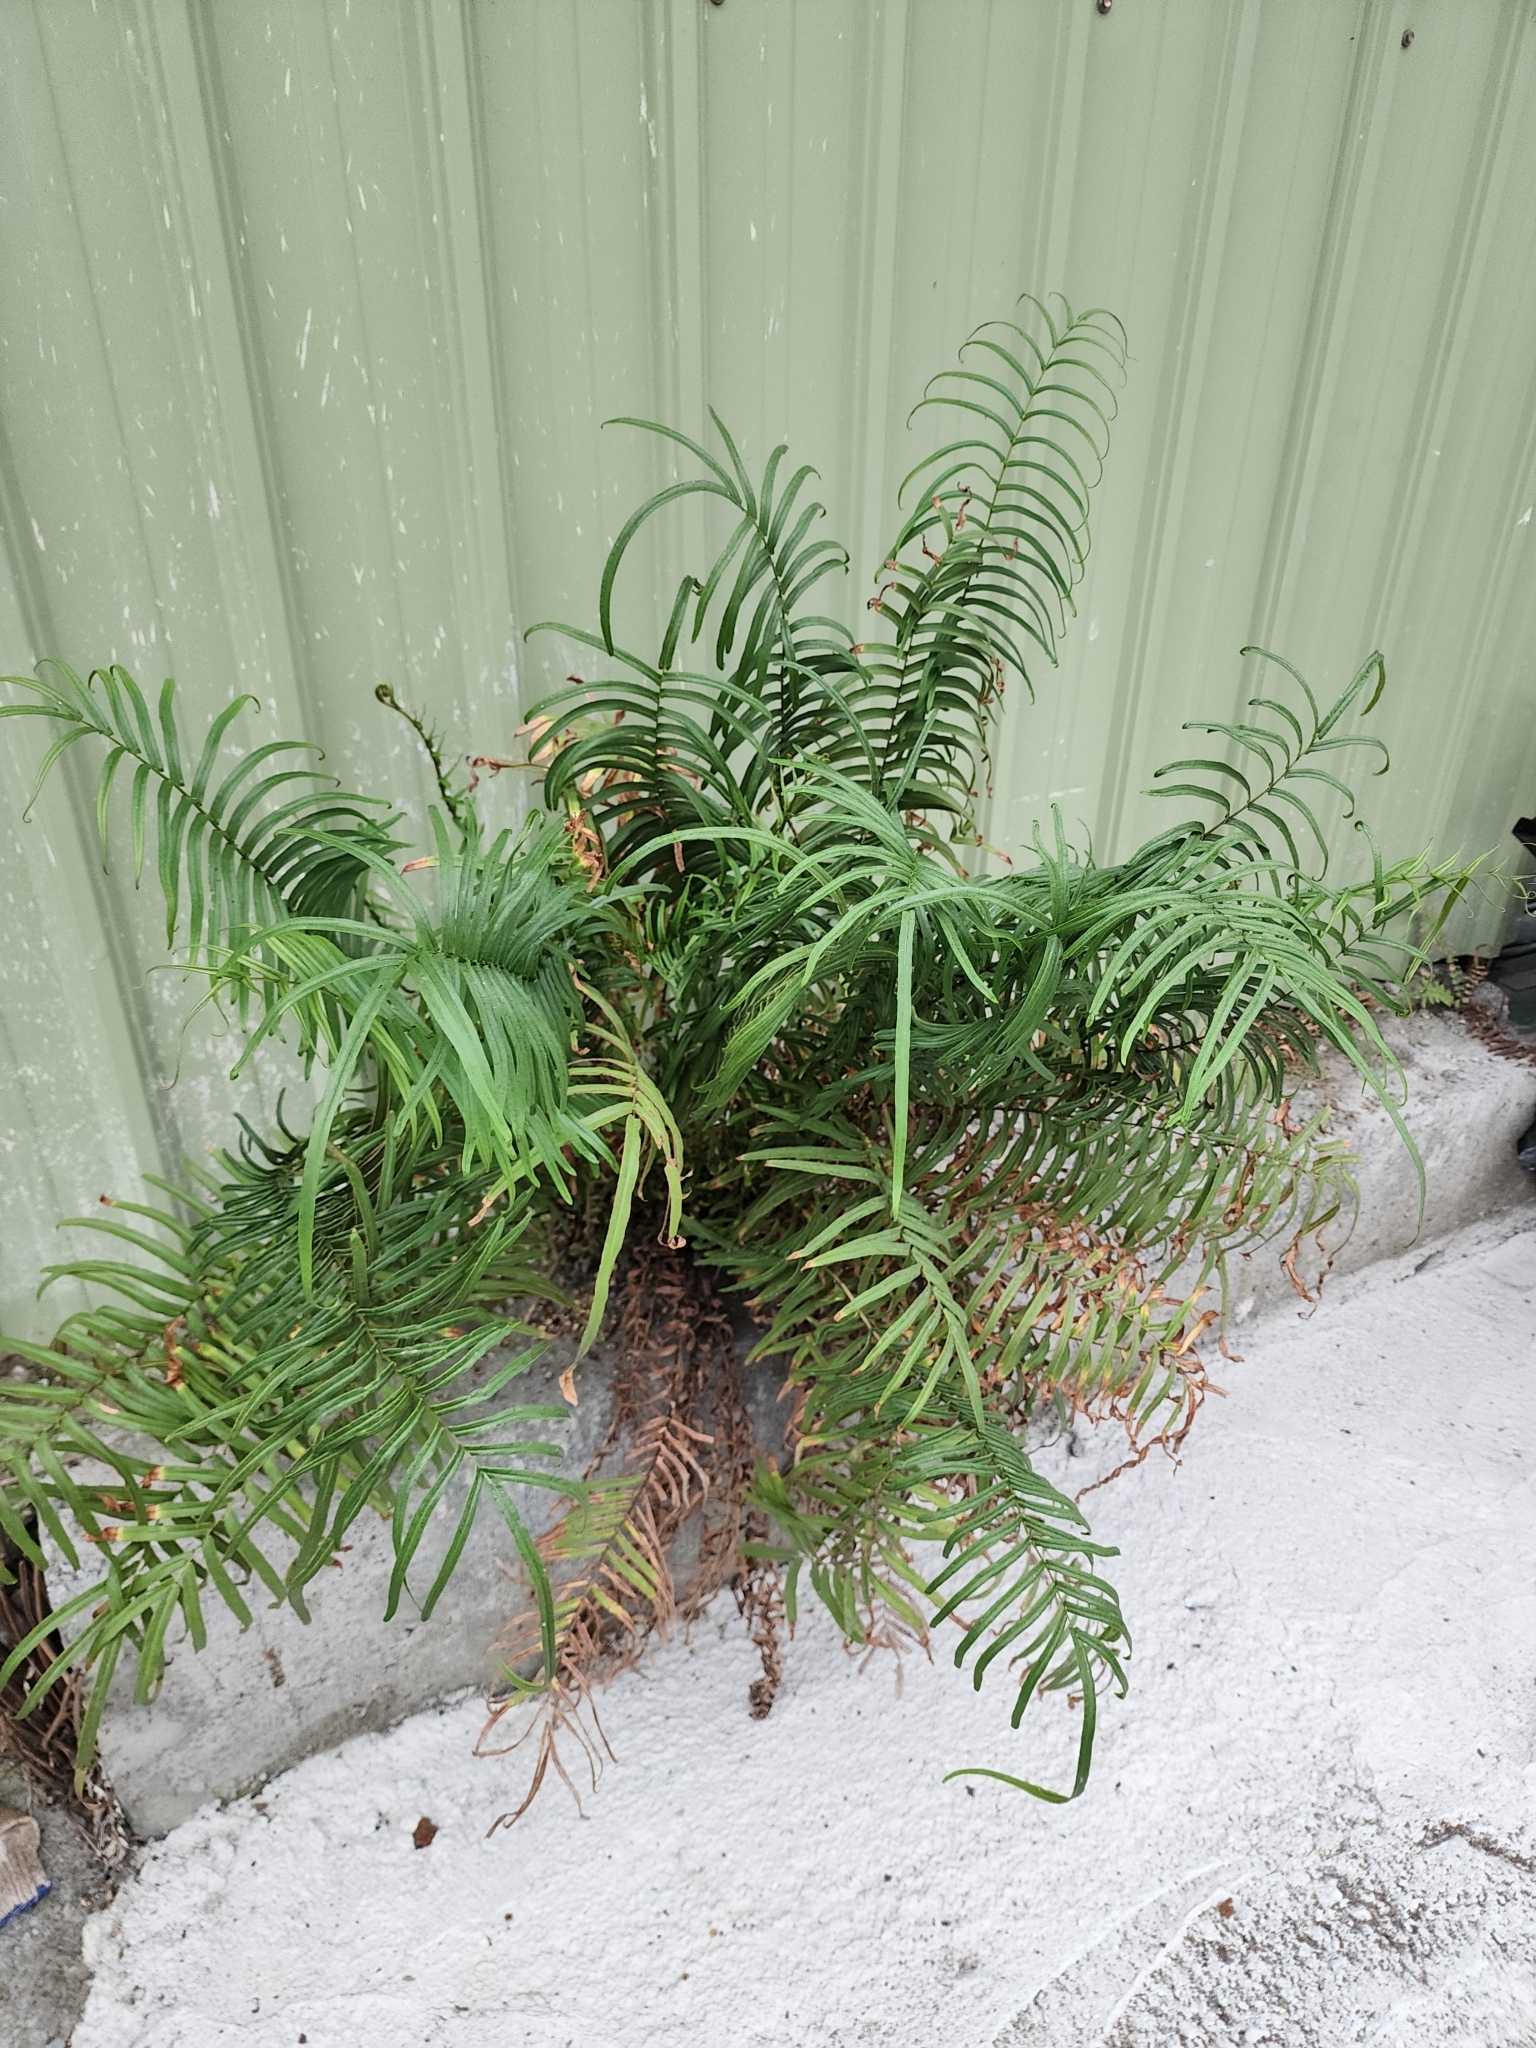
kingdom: Plantae
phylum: Tracheophyta
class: Polypodiopsida
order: Polypodiales
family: Pteridaceae
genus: Pteris
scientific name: Pteris vittata
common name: Ladder brake
